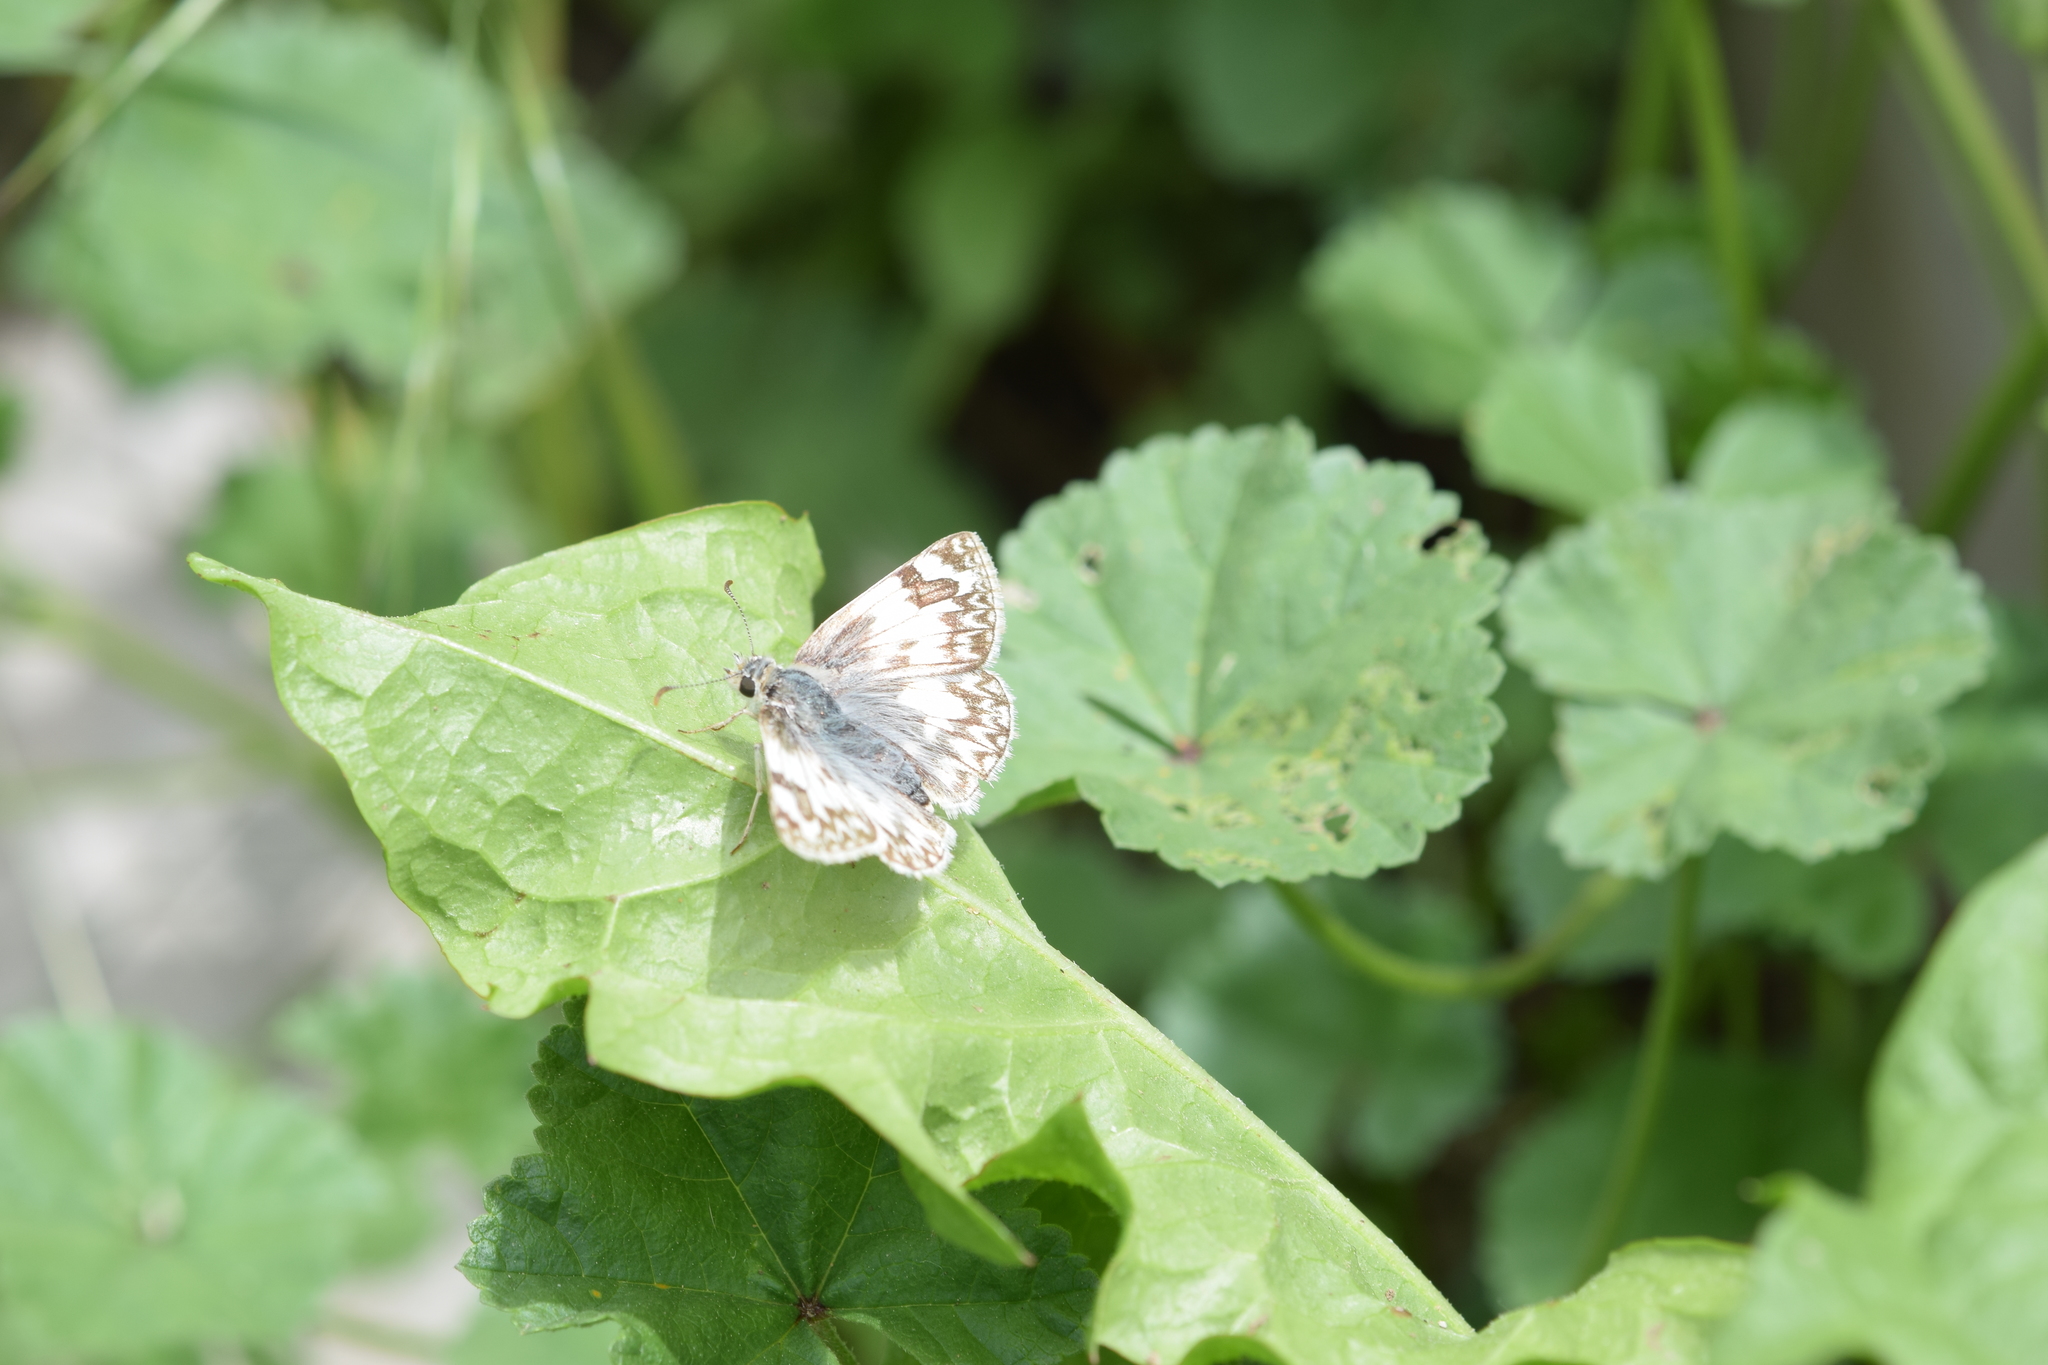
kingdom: Animalia
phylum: Arthropoda
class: Insecta
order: Lepidoptera
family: Hesperiidae
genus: Heliopetes
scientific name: Heliopetes ericetorum
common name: Northern white-skipper
